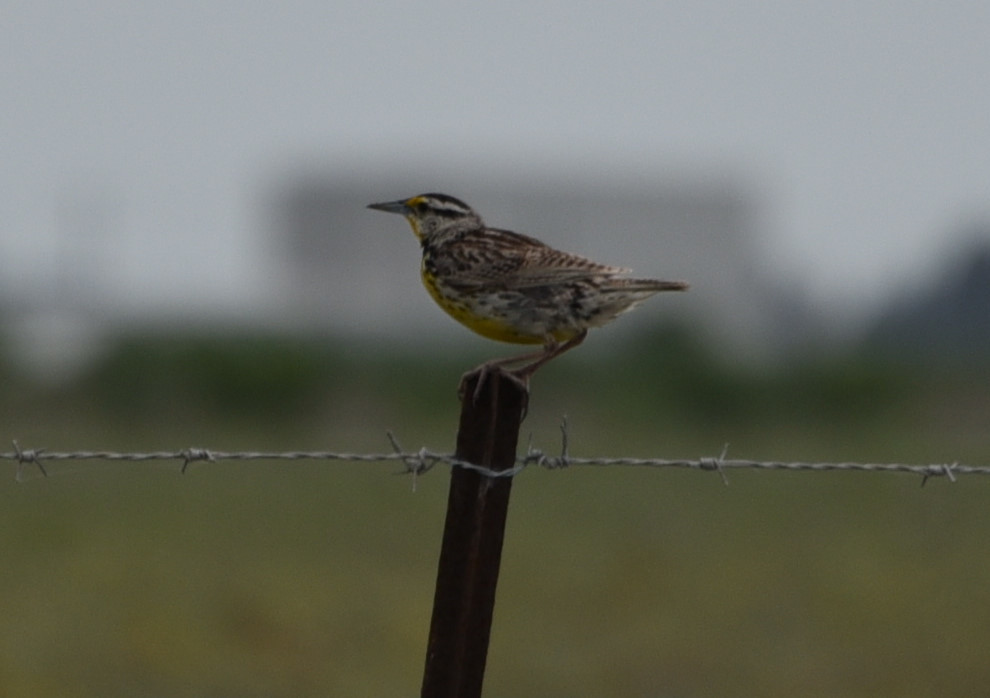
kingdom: Animalia
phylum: Chordata
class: Aves
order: Passeriformes
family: Icteridae
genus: Sturnella
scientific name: Sturnella magna
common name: Eastern meadowlark
